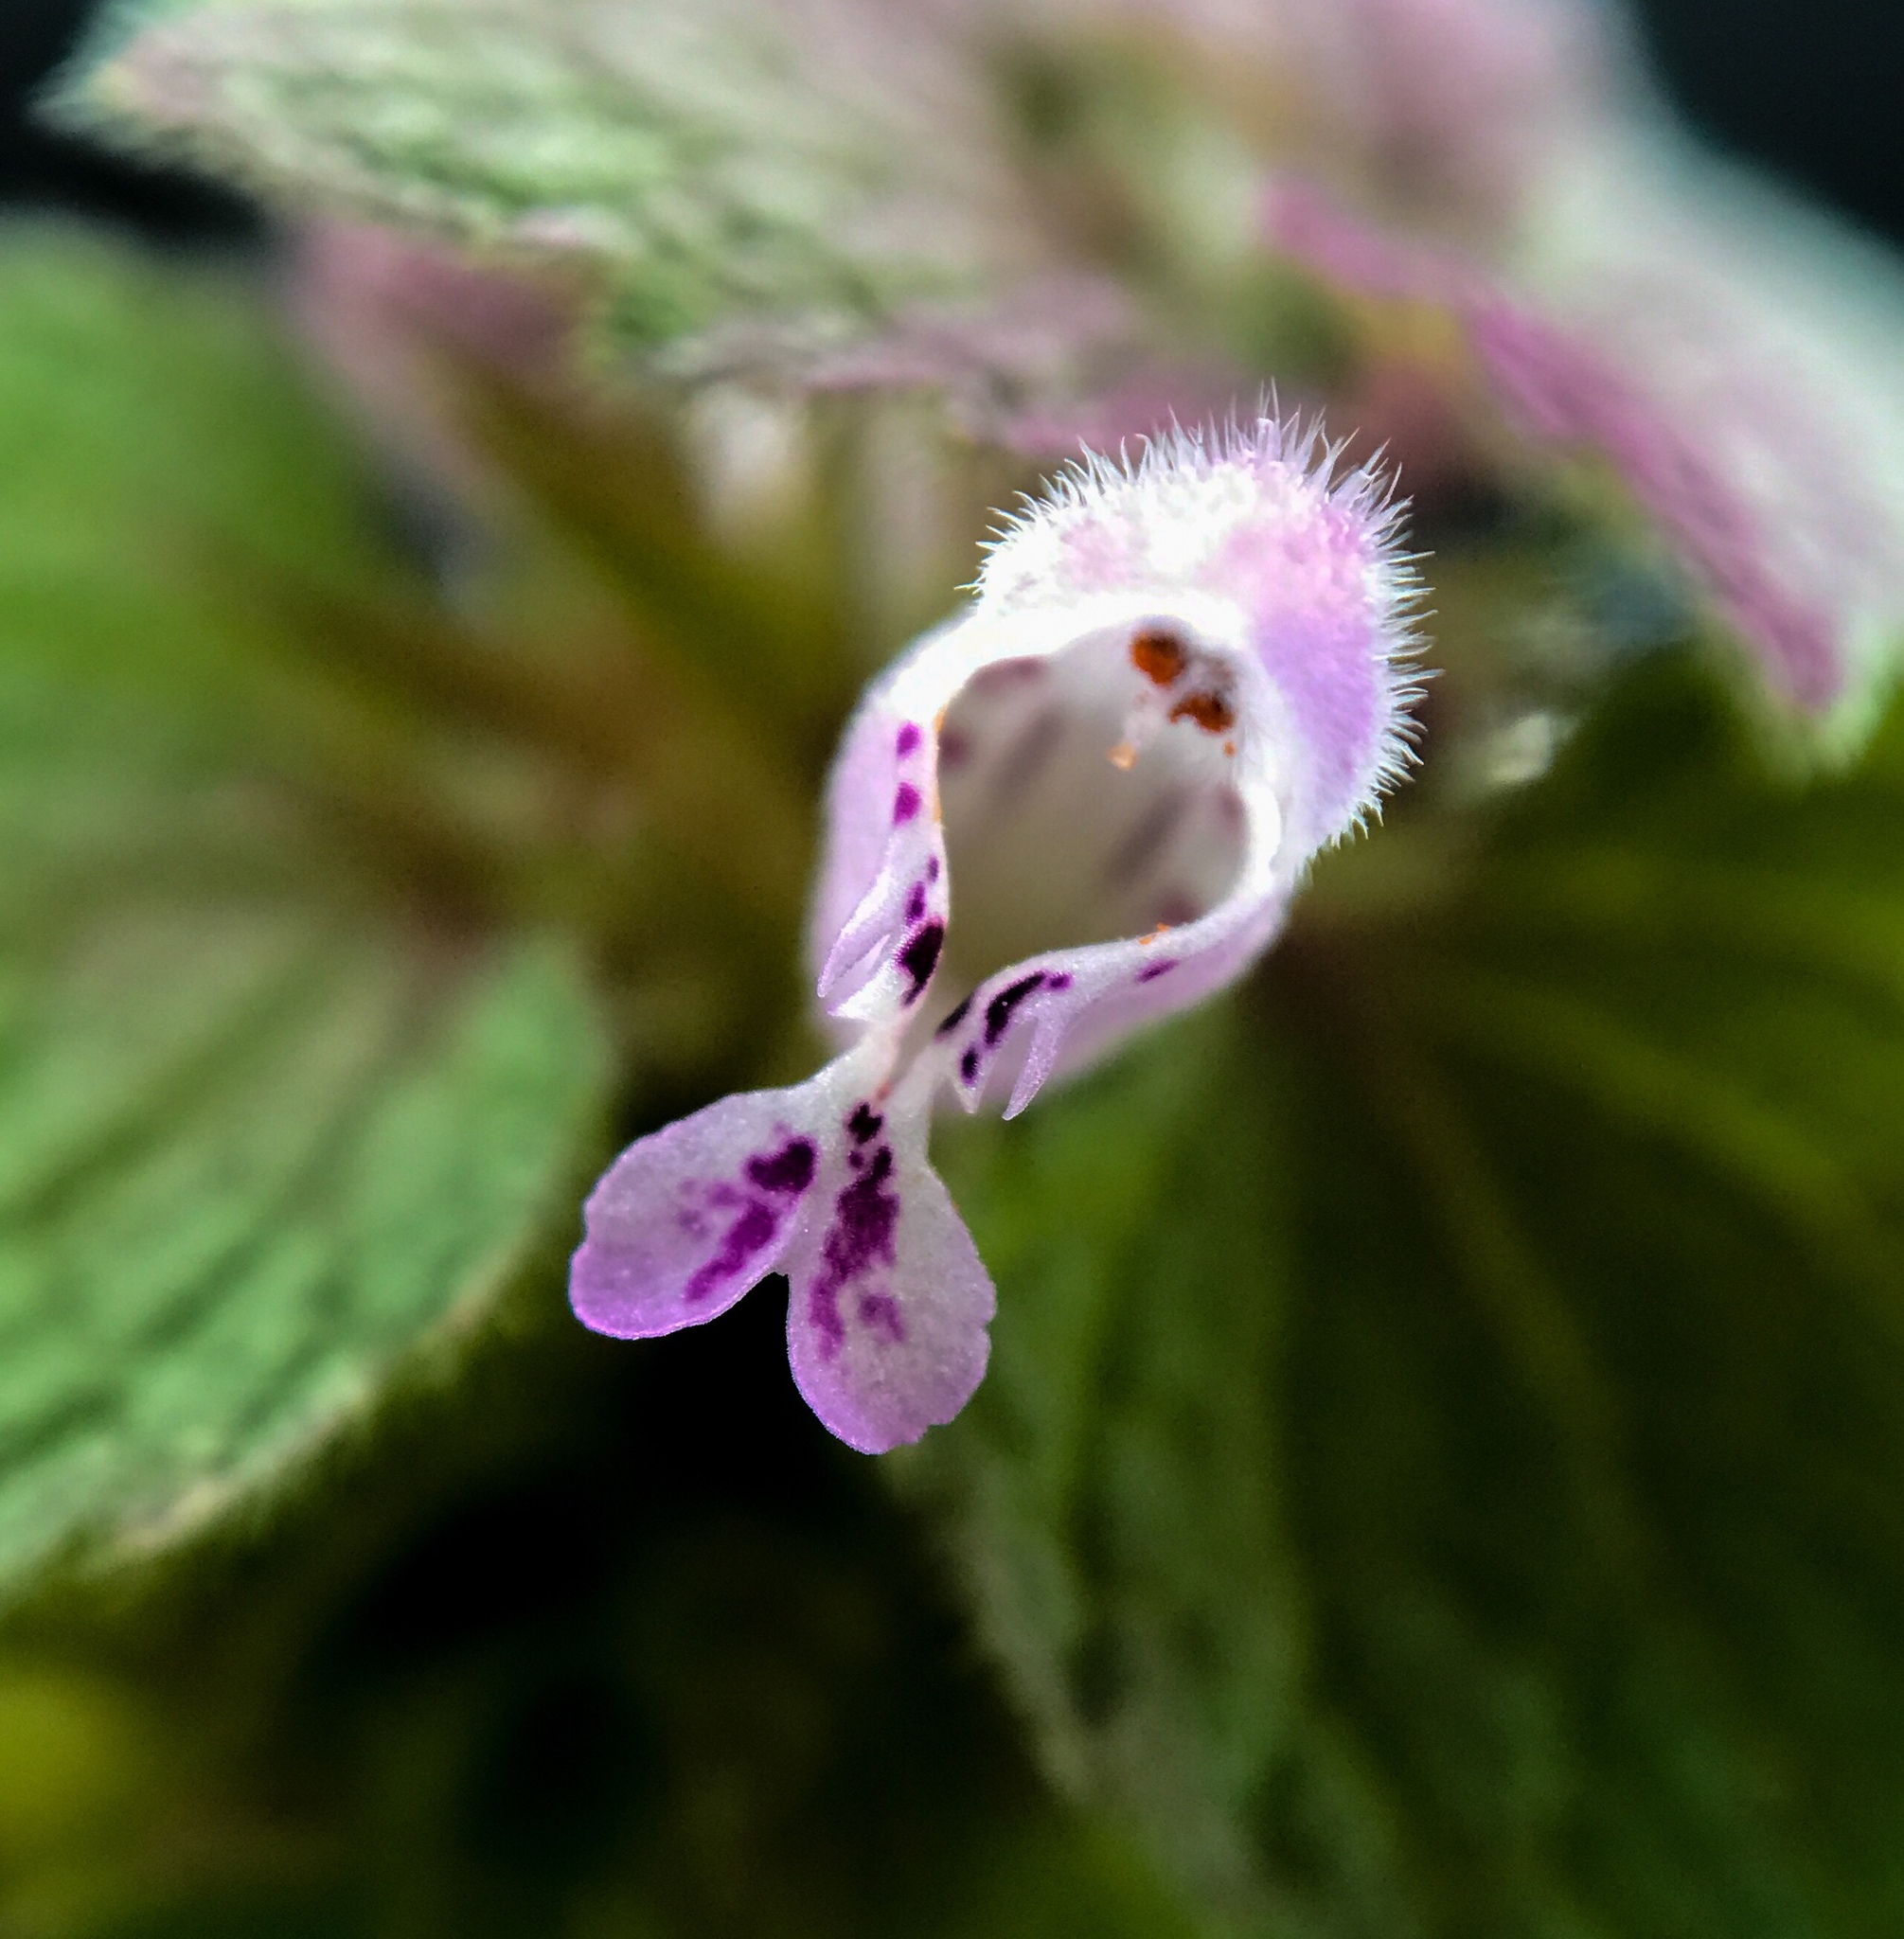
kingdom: Plantae
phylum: Tracheophyta
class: Magnoliopsida
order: Lamiales
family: Lamiaceae
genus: Lamium
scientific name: Lamium purpureum
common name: Red dead-nettle
